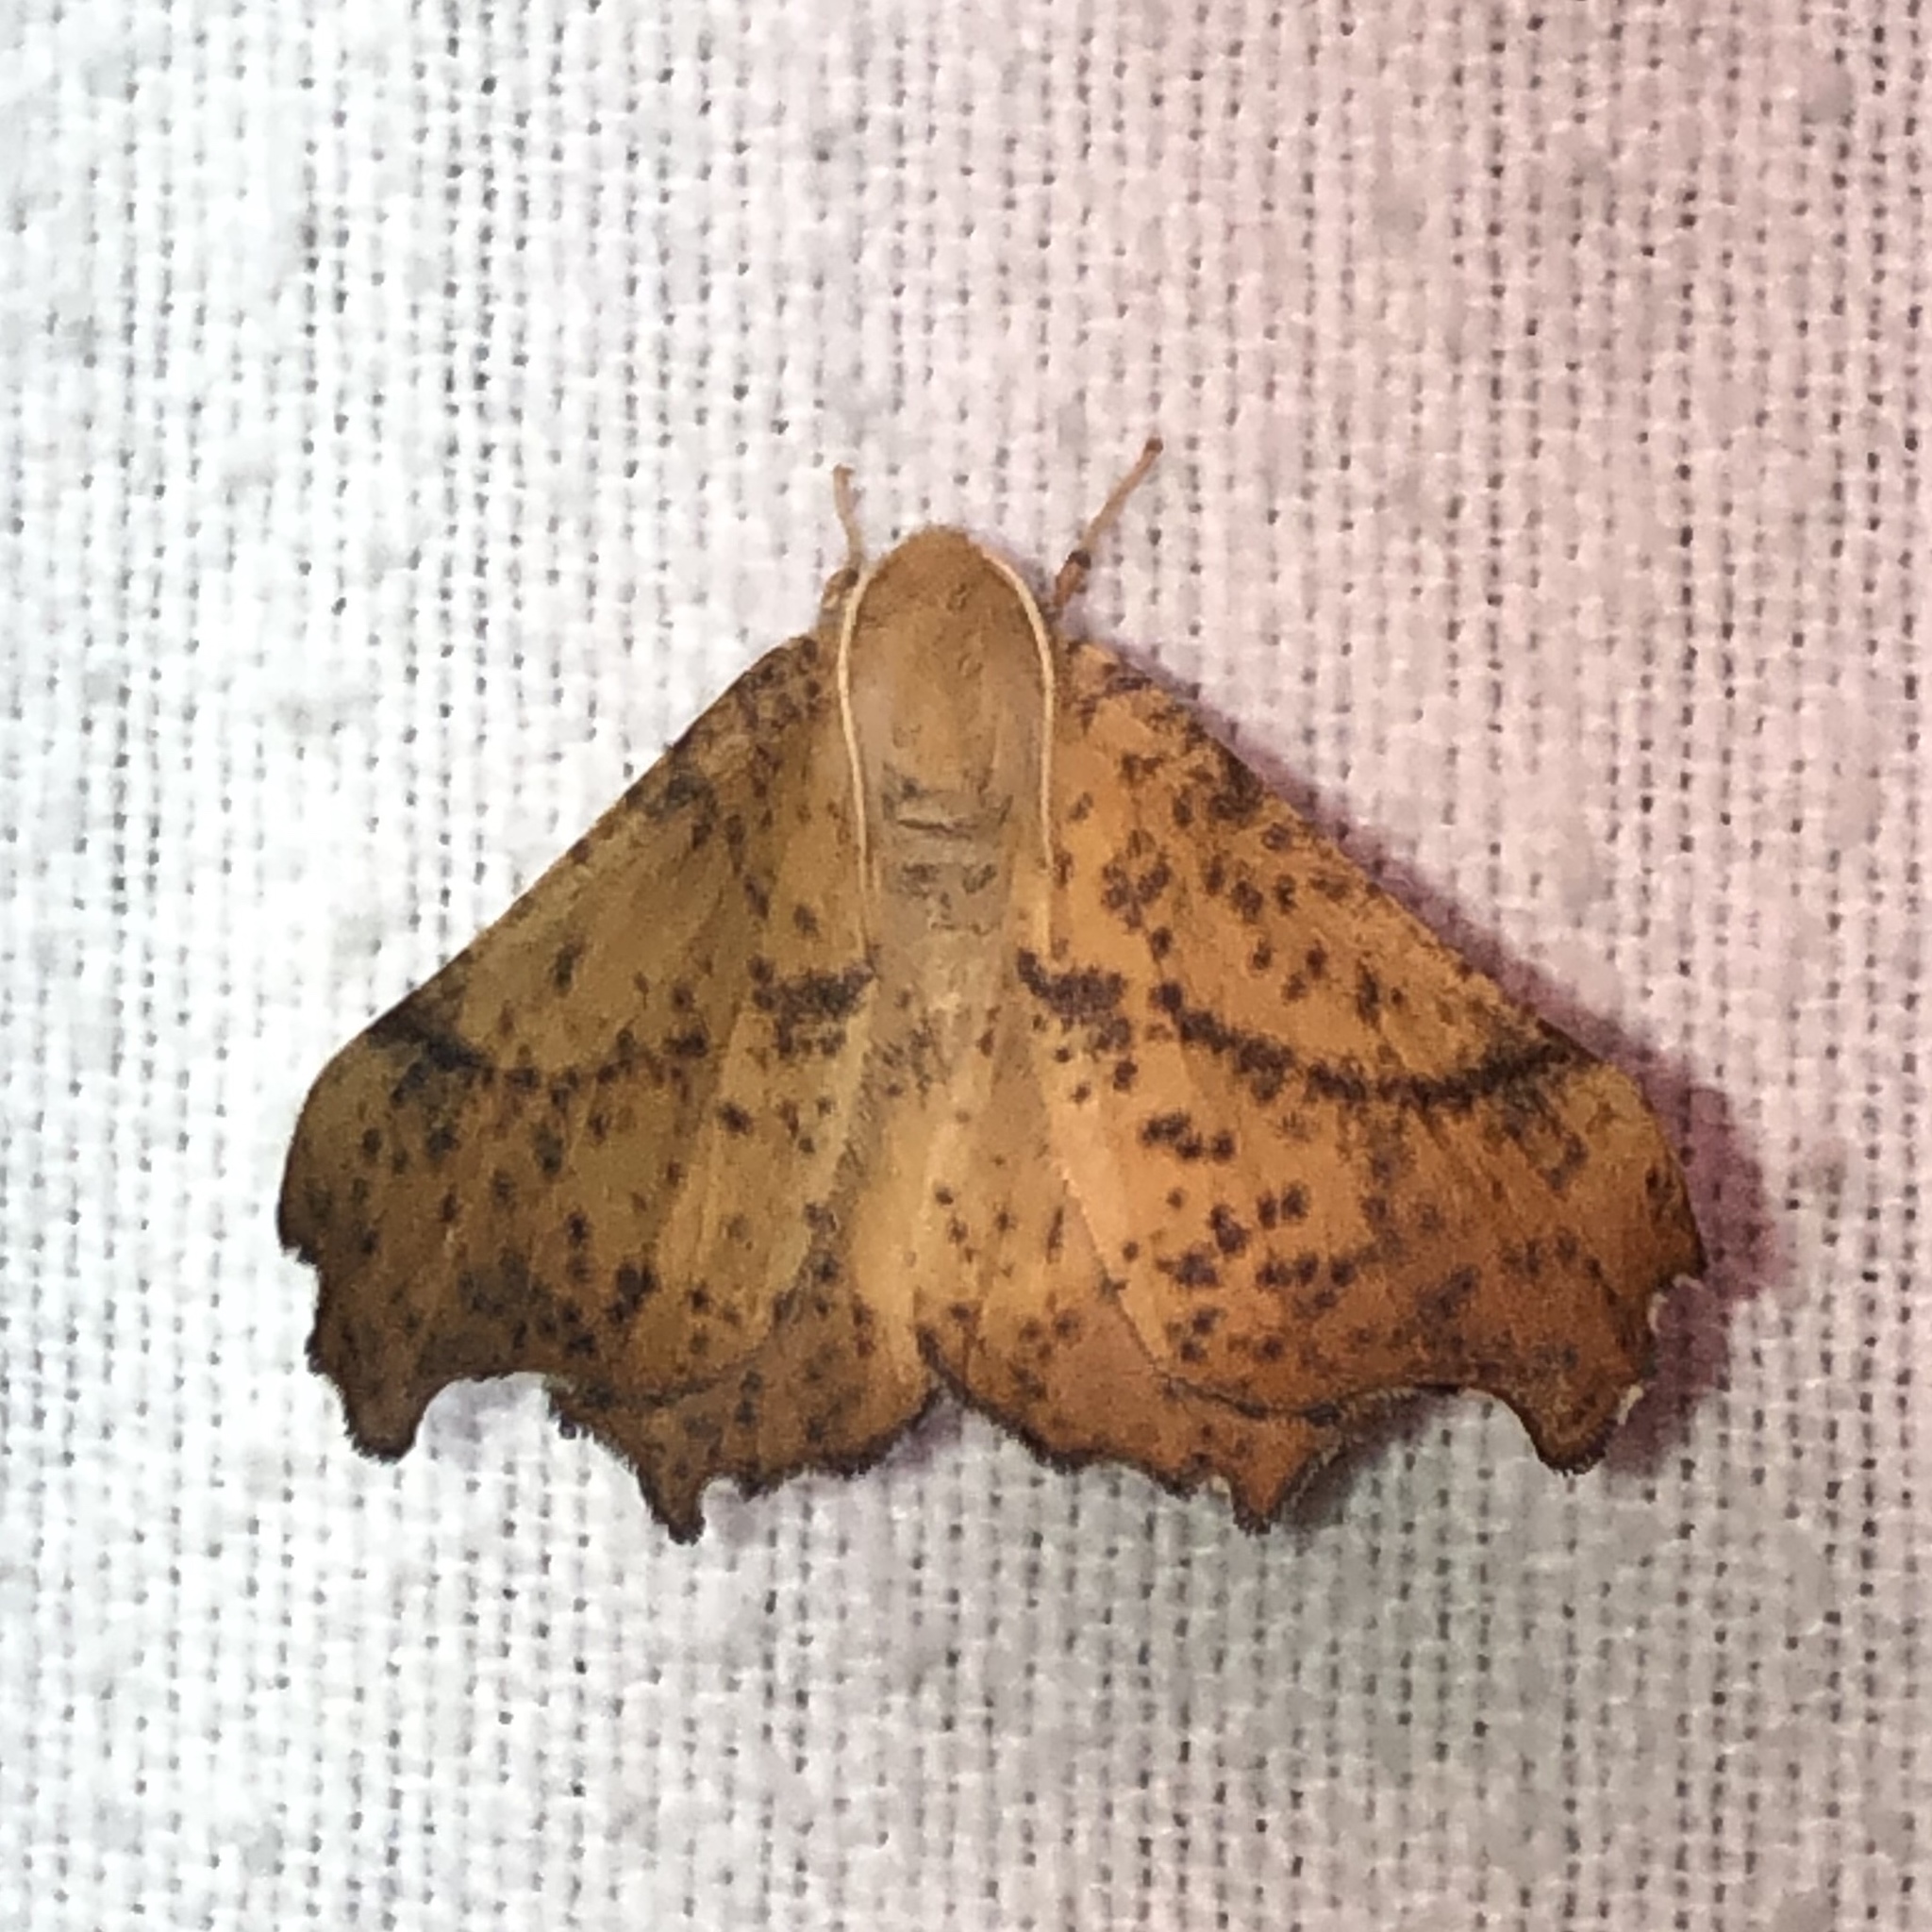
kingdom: Animalia
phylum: Arthropoda
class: Insecta
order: Lepidoptera
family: Geometridae
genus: Ennomos
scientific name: Ennomos magnaria
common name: Maple spanworm
